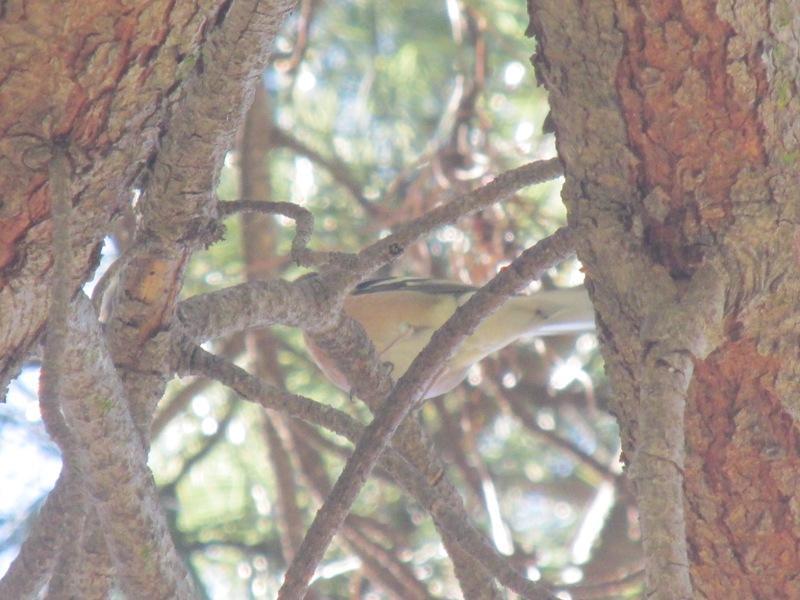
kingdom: Animalia
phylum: Chordata
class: Aves
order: Passeriformes
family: Fringillidae
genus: Fringilla
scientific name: Fringilla coelebs
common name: Common chaffinch
